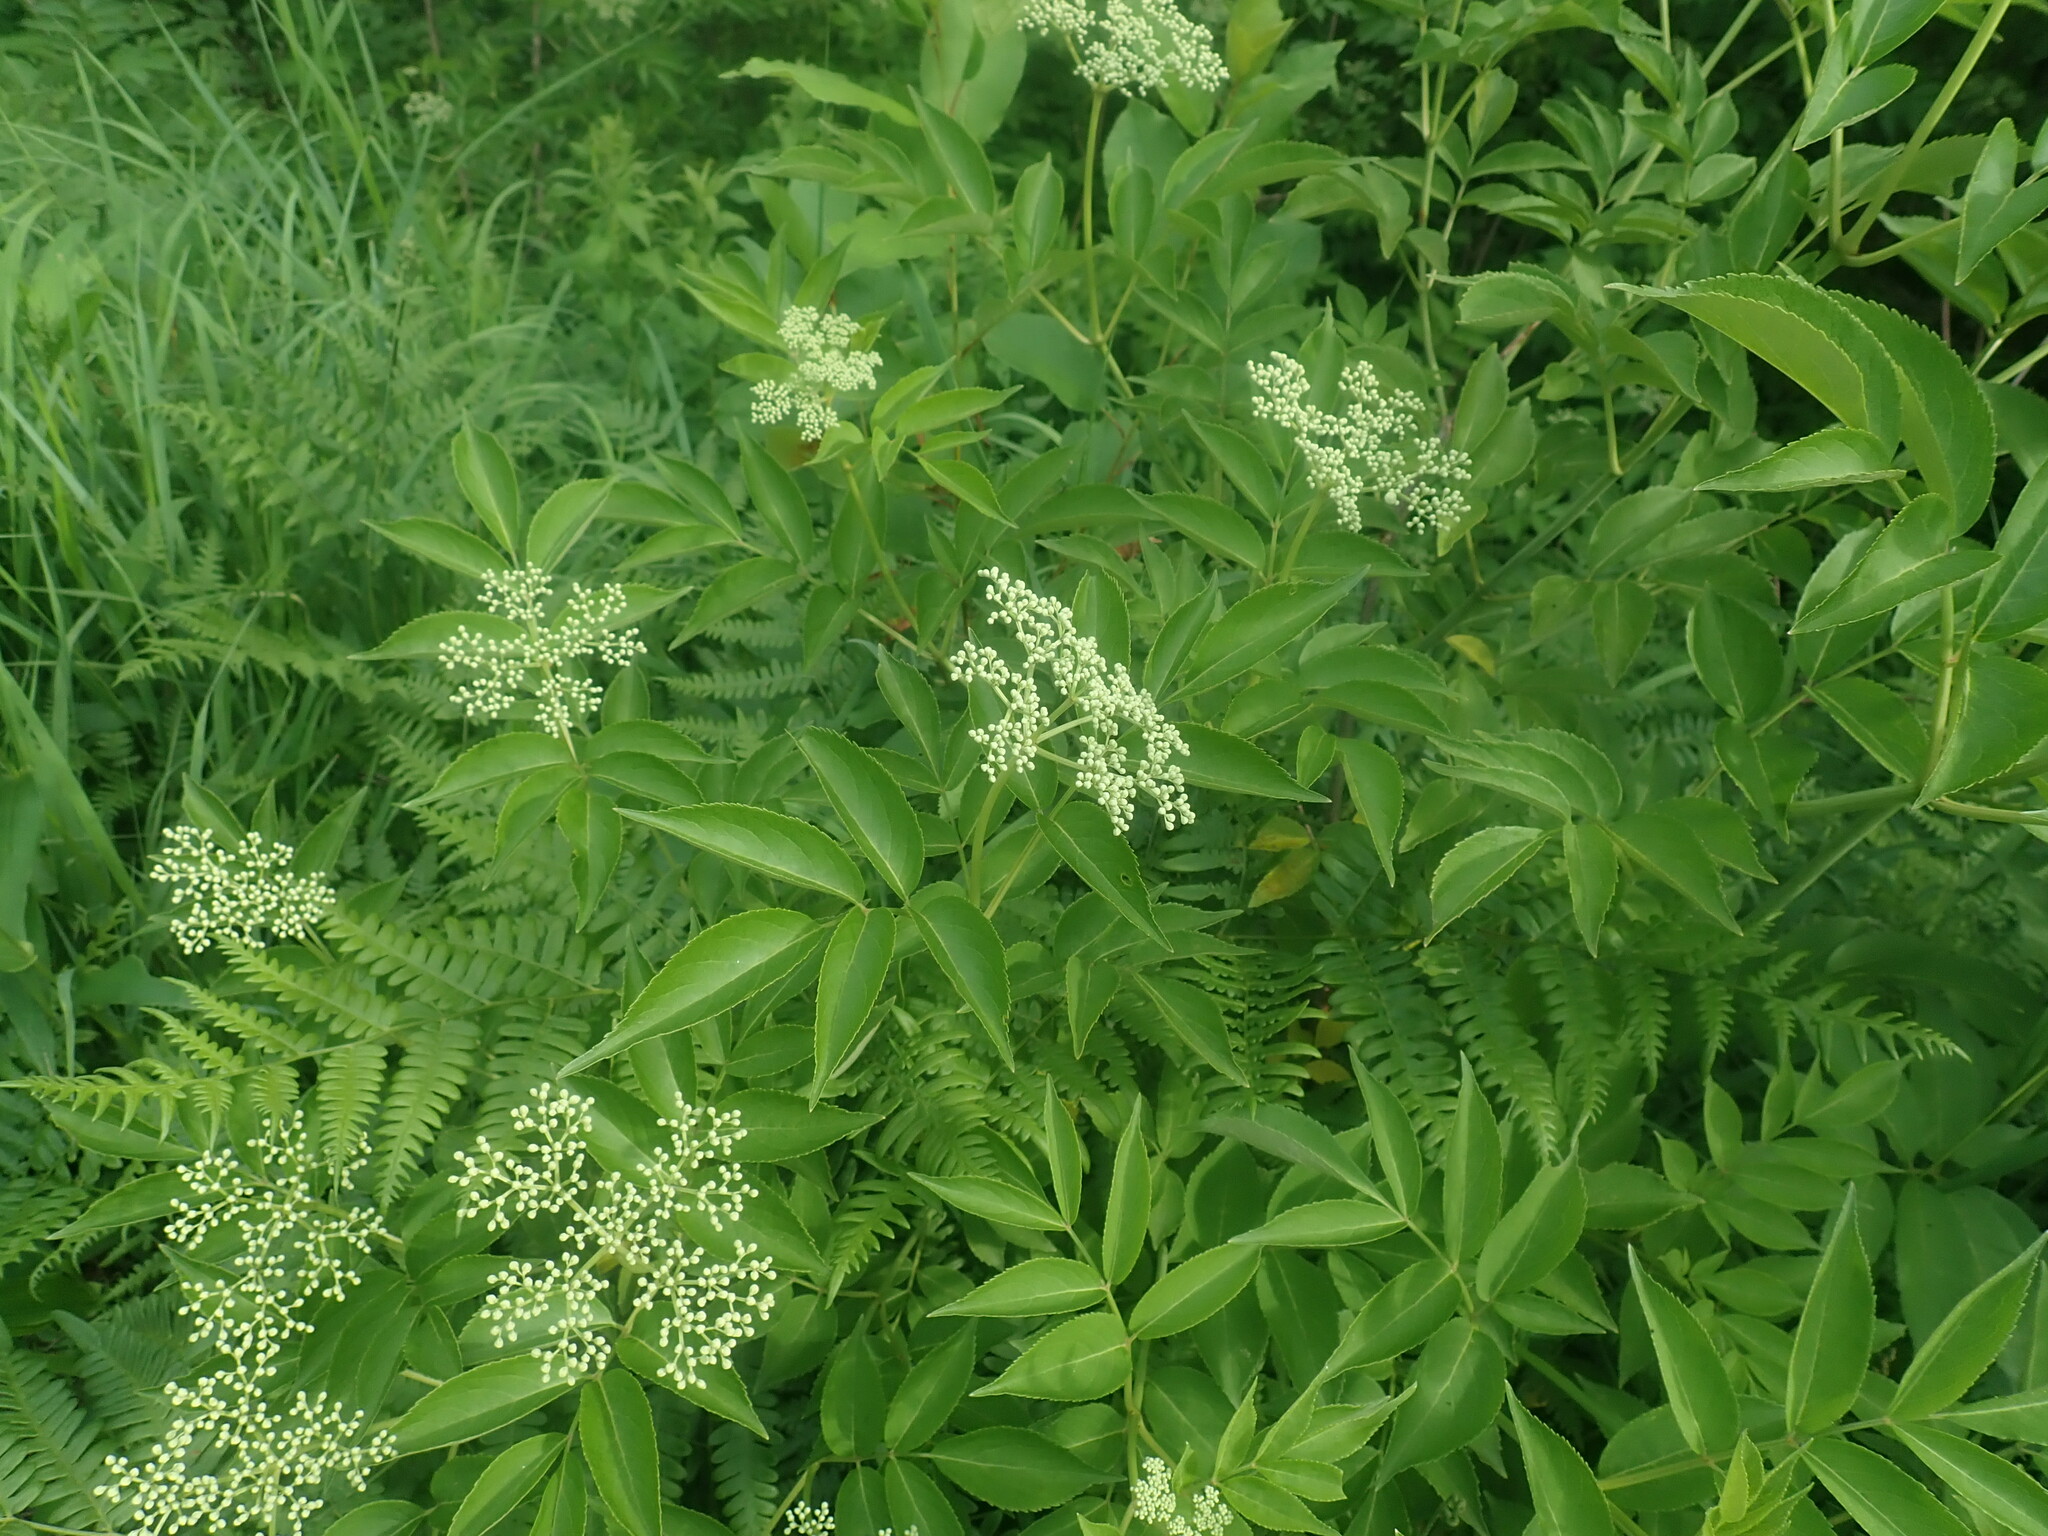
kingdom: Plantae
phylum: Tracheophyta
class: Magnoliopsida
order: Dipsacales
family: Viburnaceae
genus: Sambucus
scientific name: Sambucus canadensis
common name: American elder
